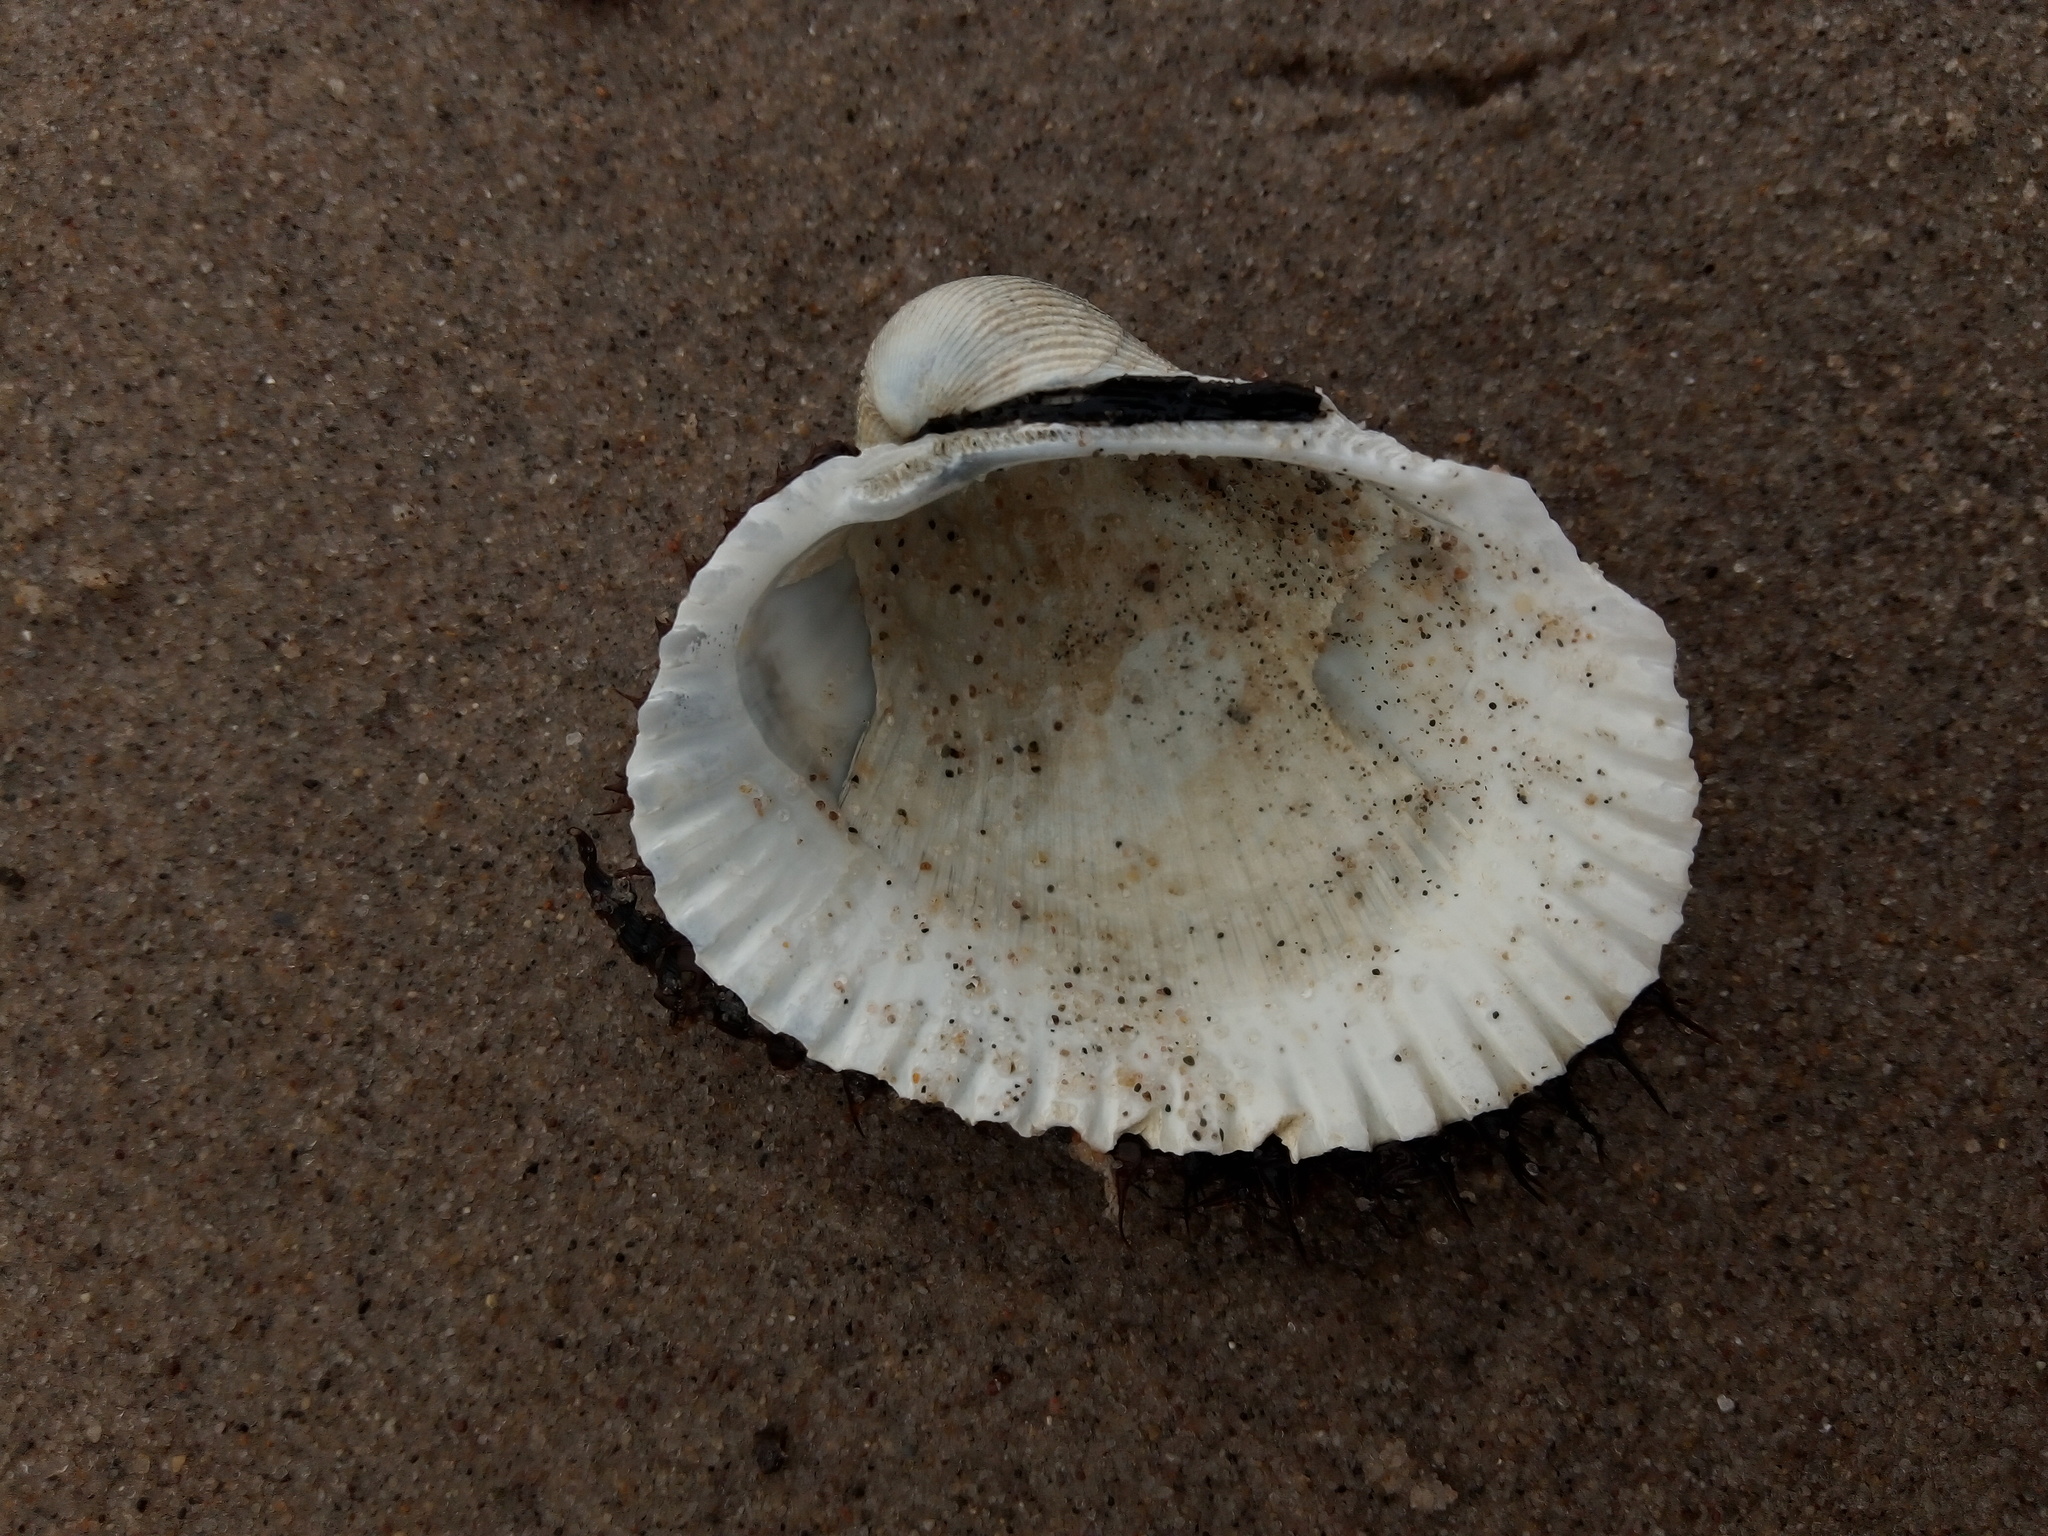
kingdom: Animalia
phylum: Mollusca
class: Bivalvia
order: Arcida
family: Arcidae
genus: Lunarca
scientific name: Lunarca ovalis
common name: Blood ark
